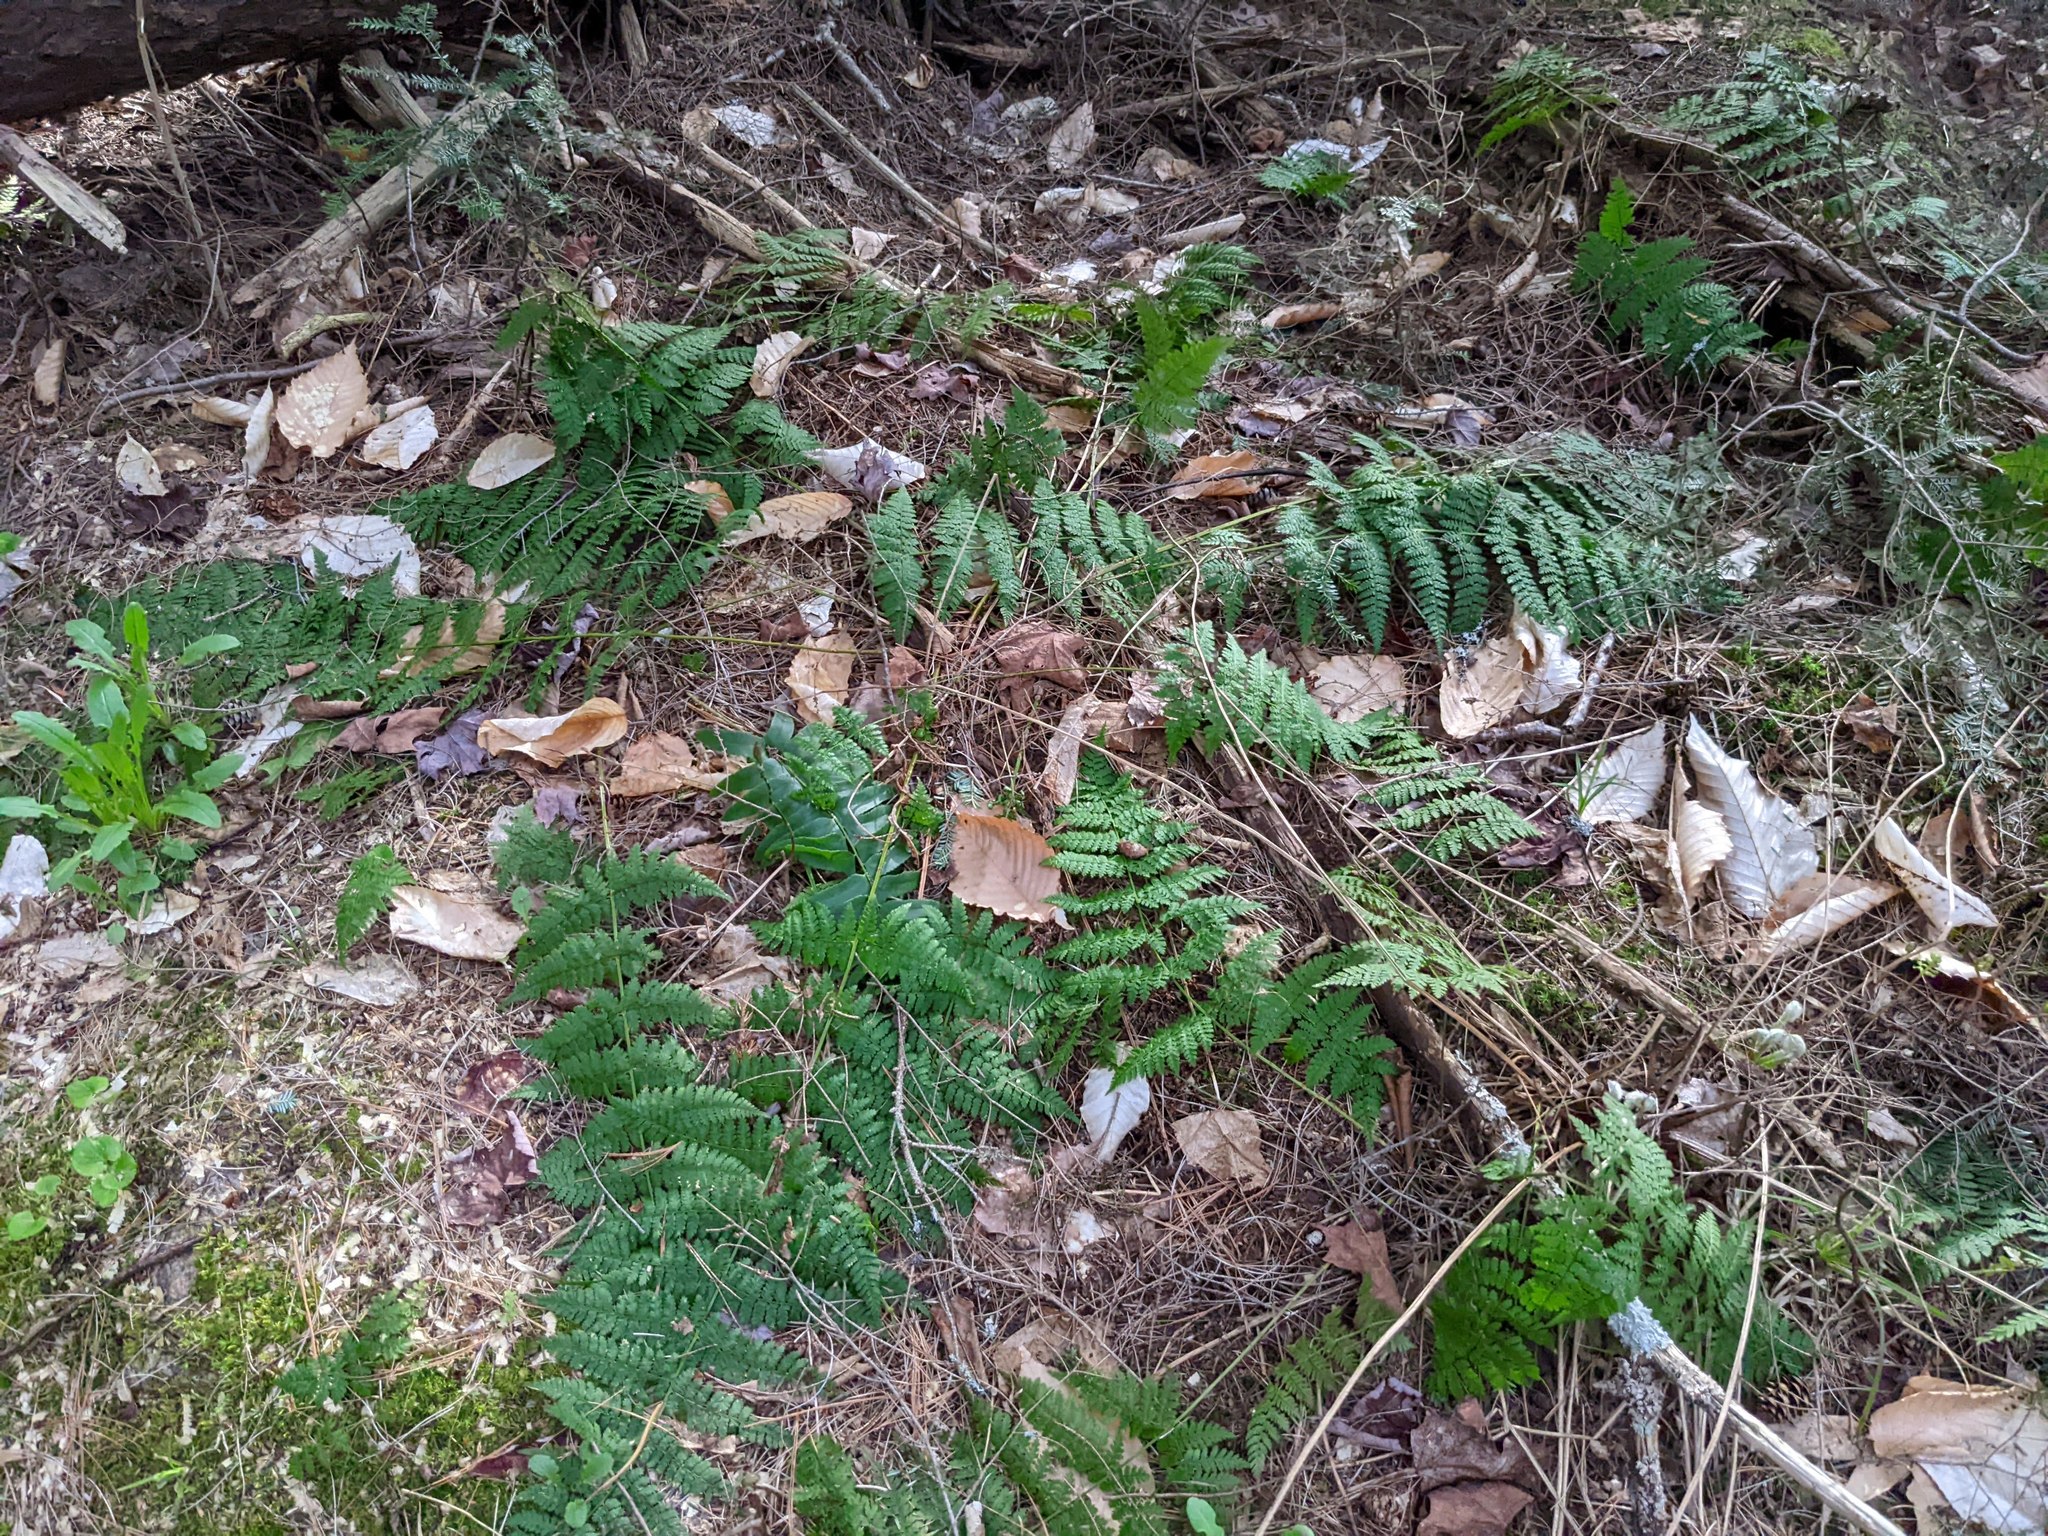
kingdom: Plantae
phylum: Tracheophyta
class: Polypodiopsida
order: Polypodiales
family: Dryopteridaceae
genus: Dryopteris
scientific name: Dryopteris intermedia
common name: Evergreen wood fern
